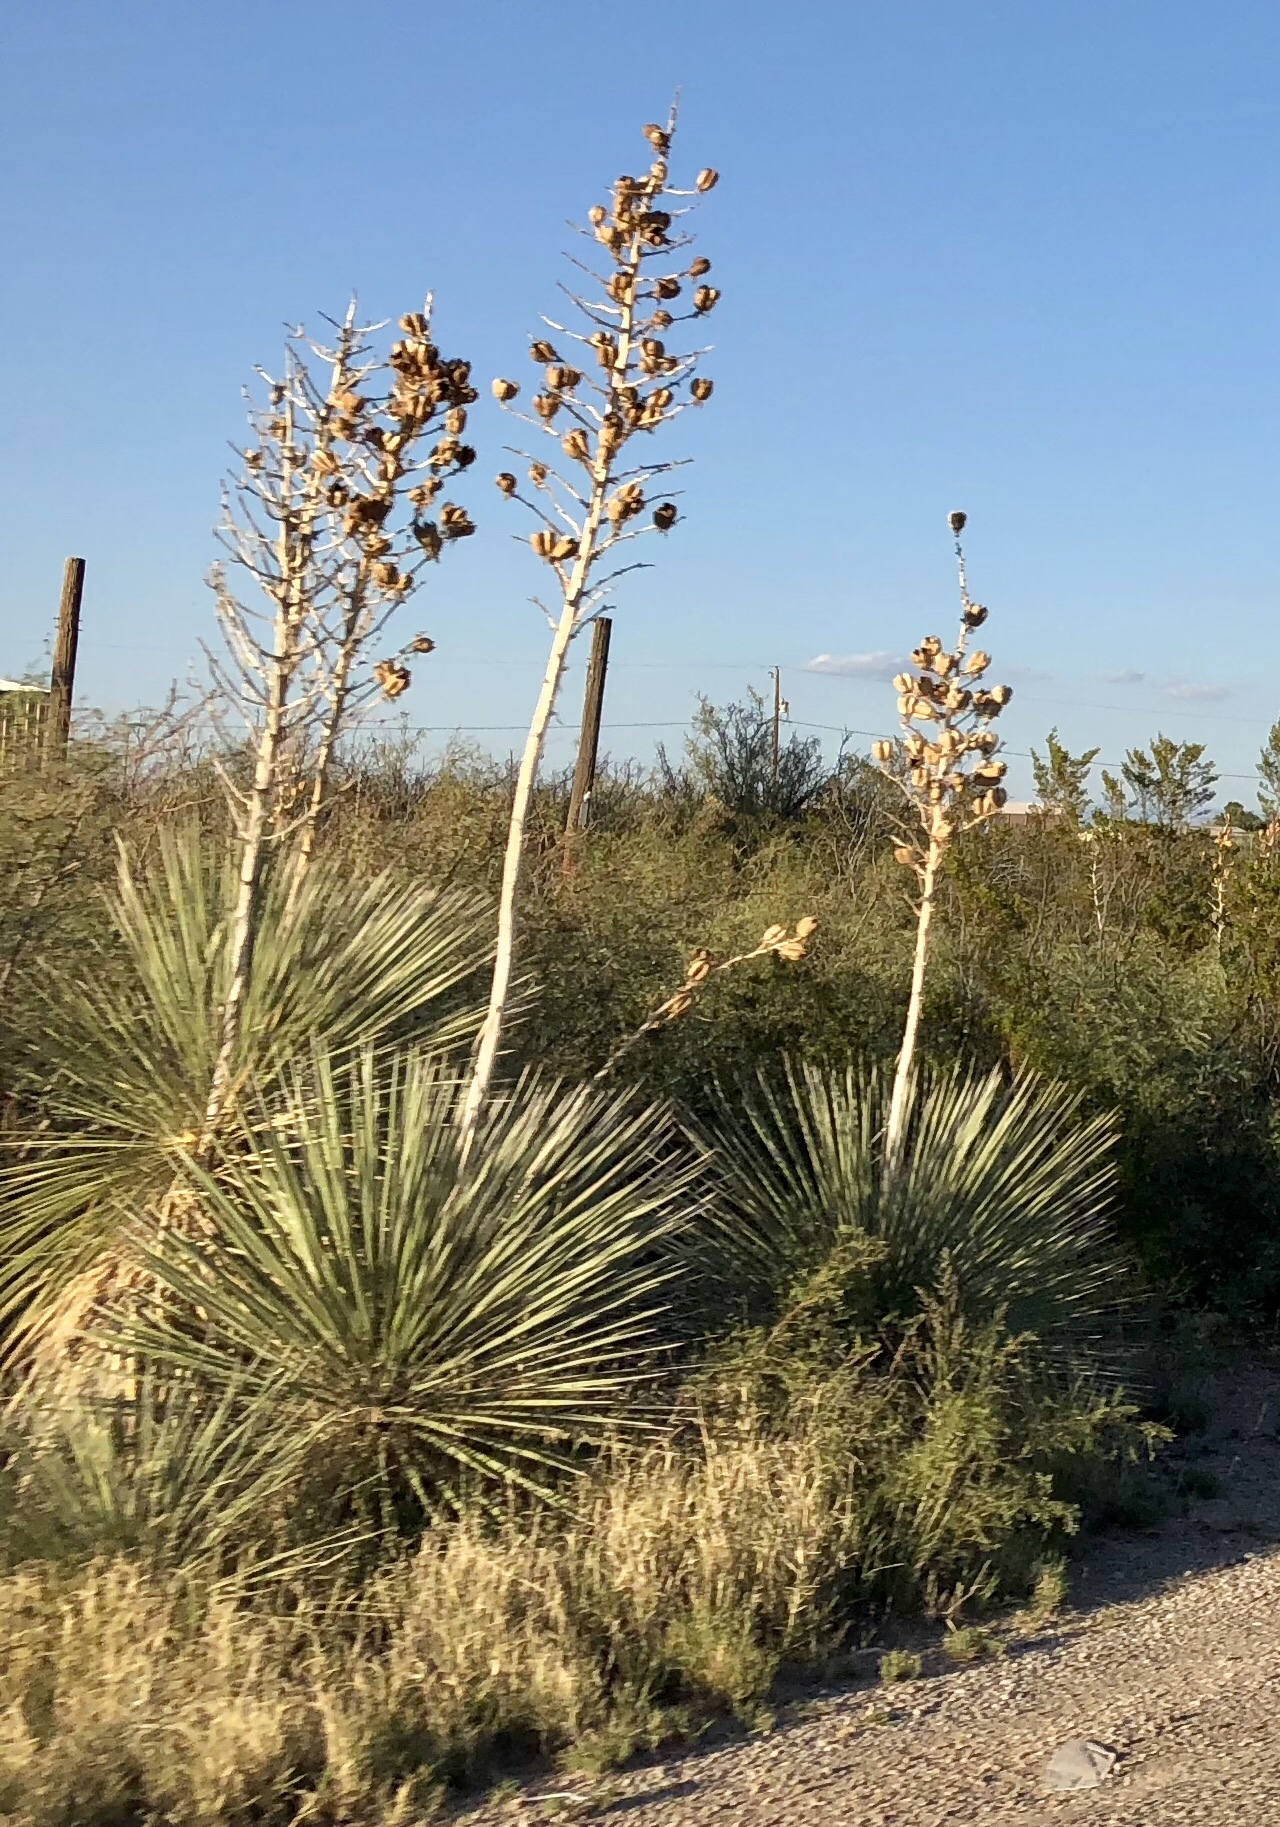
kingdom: Plantae
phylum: Tracheophyta
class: Liliopsida
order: Asparagales
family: Asparagaceae
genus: Yucca
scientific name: Yucca elata
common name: Palmella
